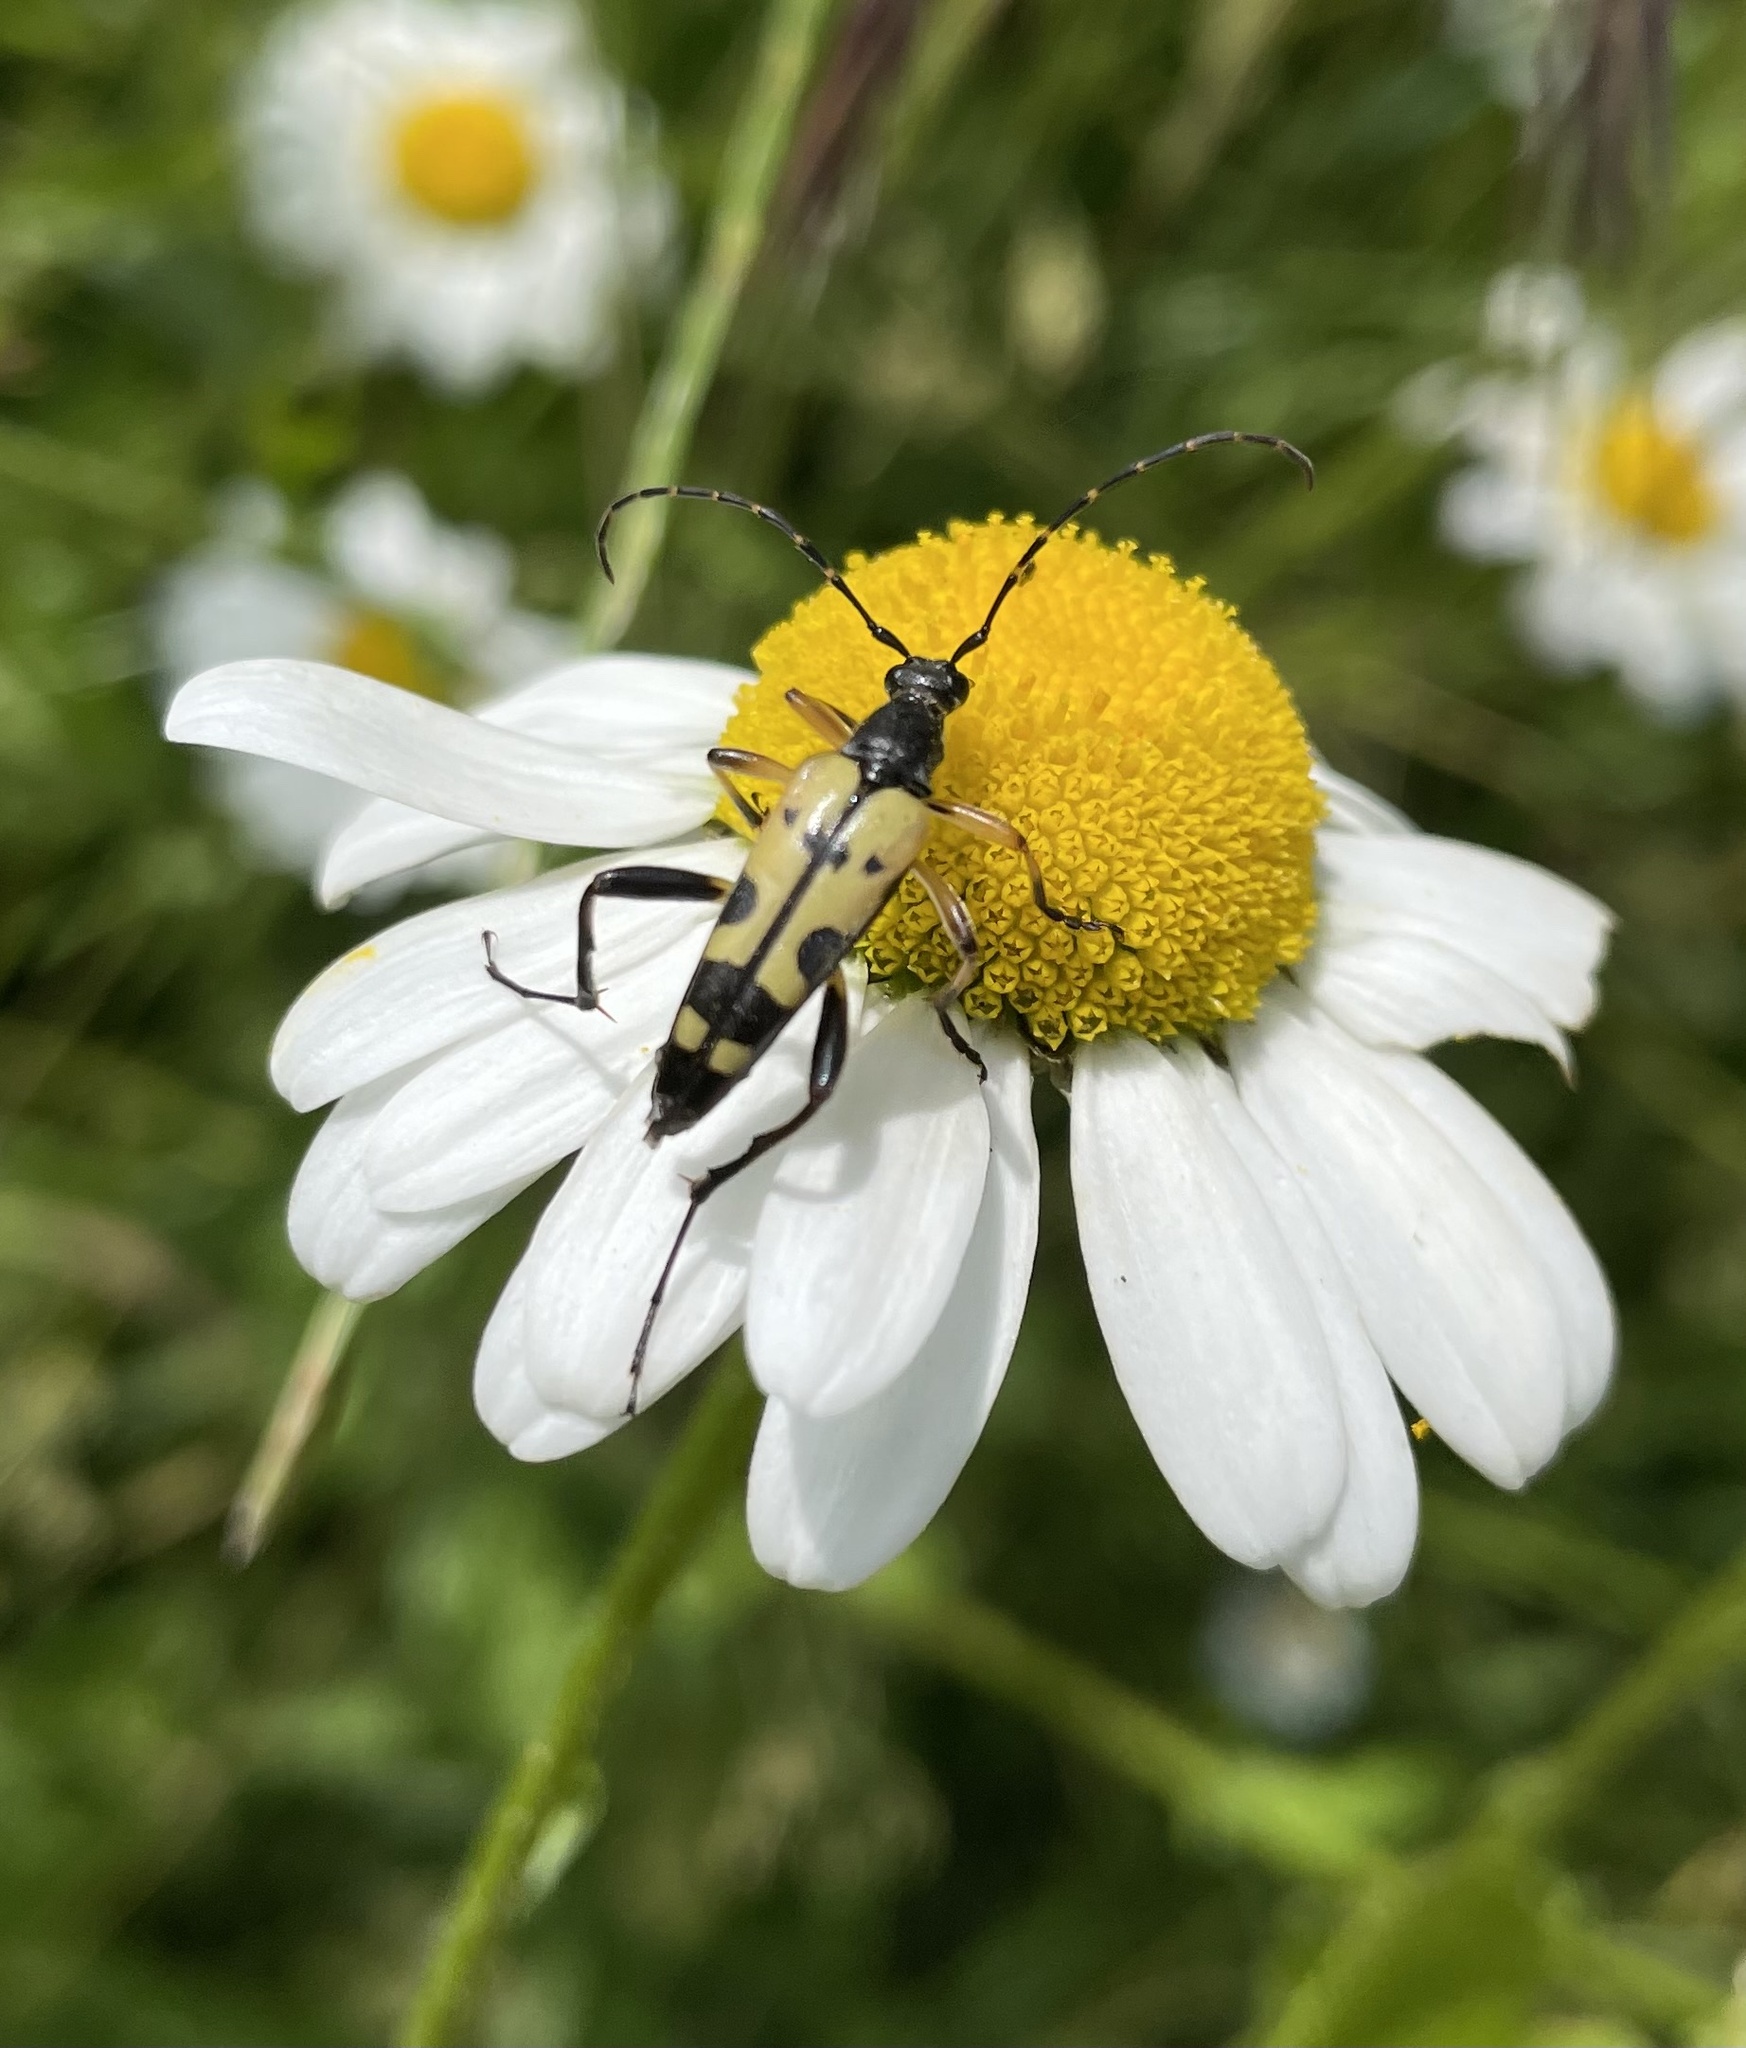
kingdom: Animalia
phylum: Arthropoda
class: Insecta
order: Coleoptera
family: Cerambycidae
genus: Rutpela
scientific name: Rutpela maculata
